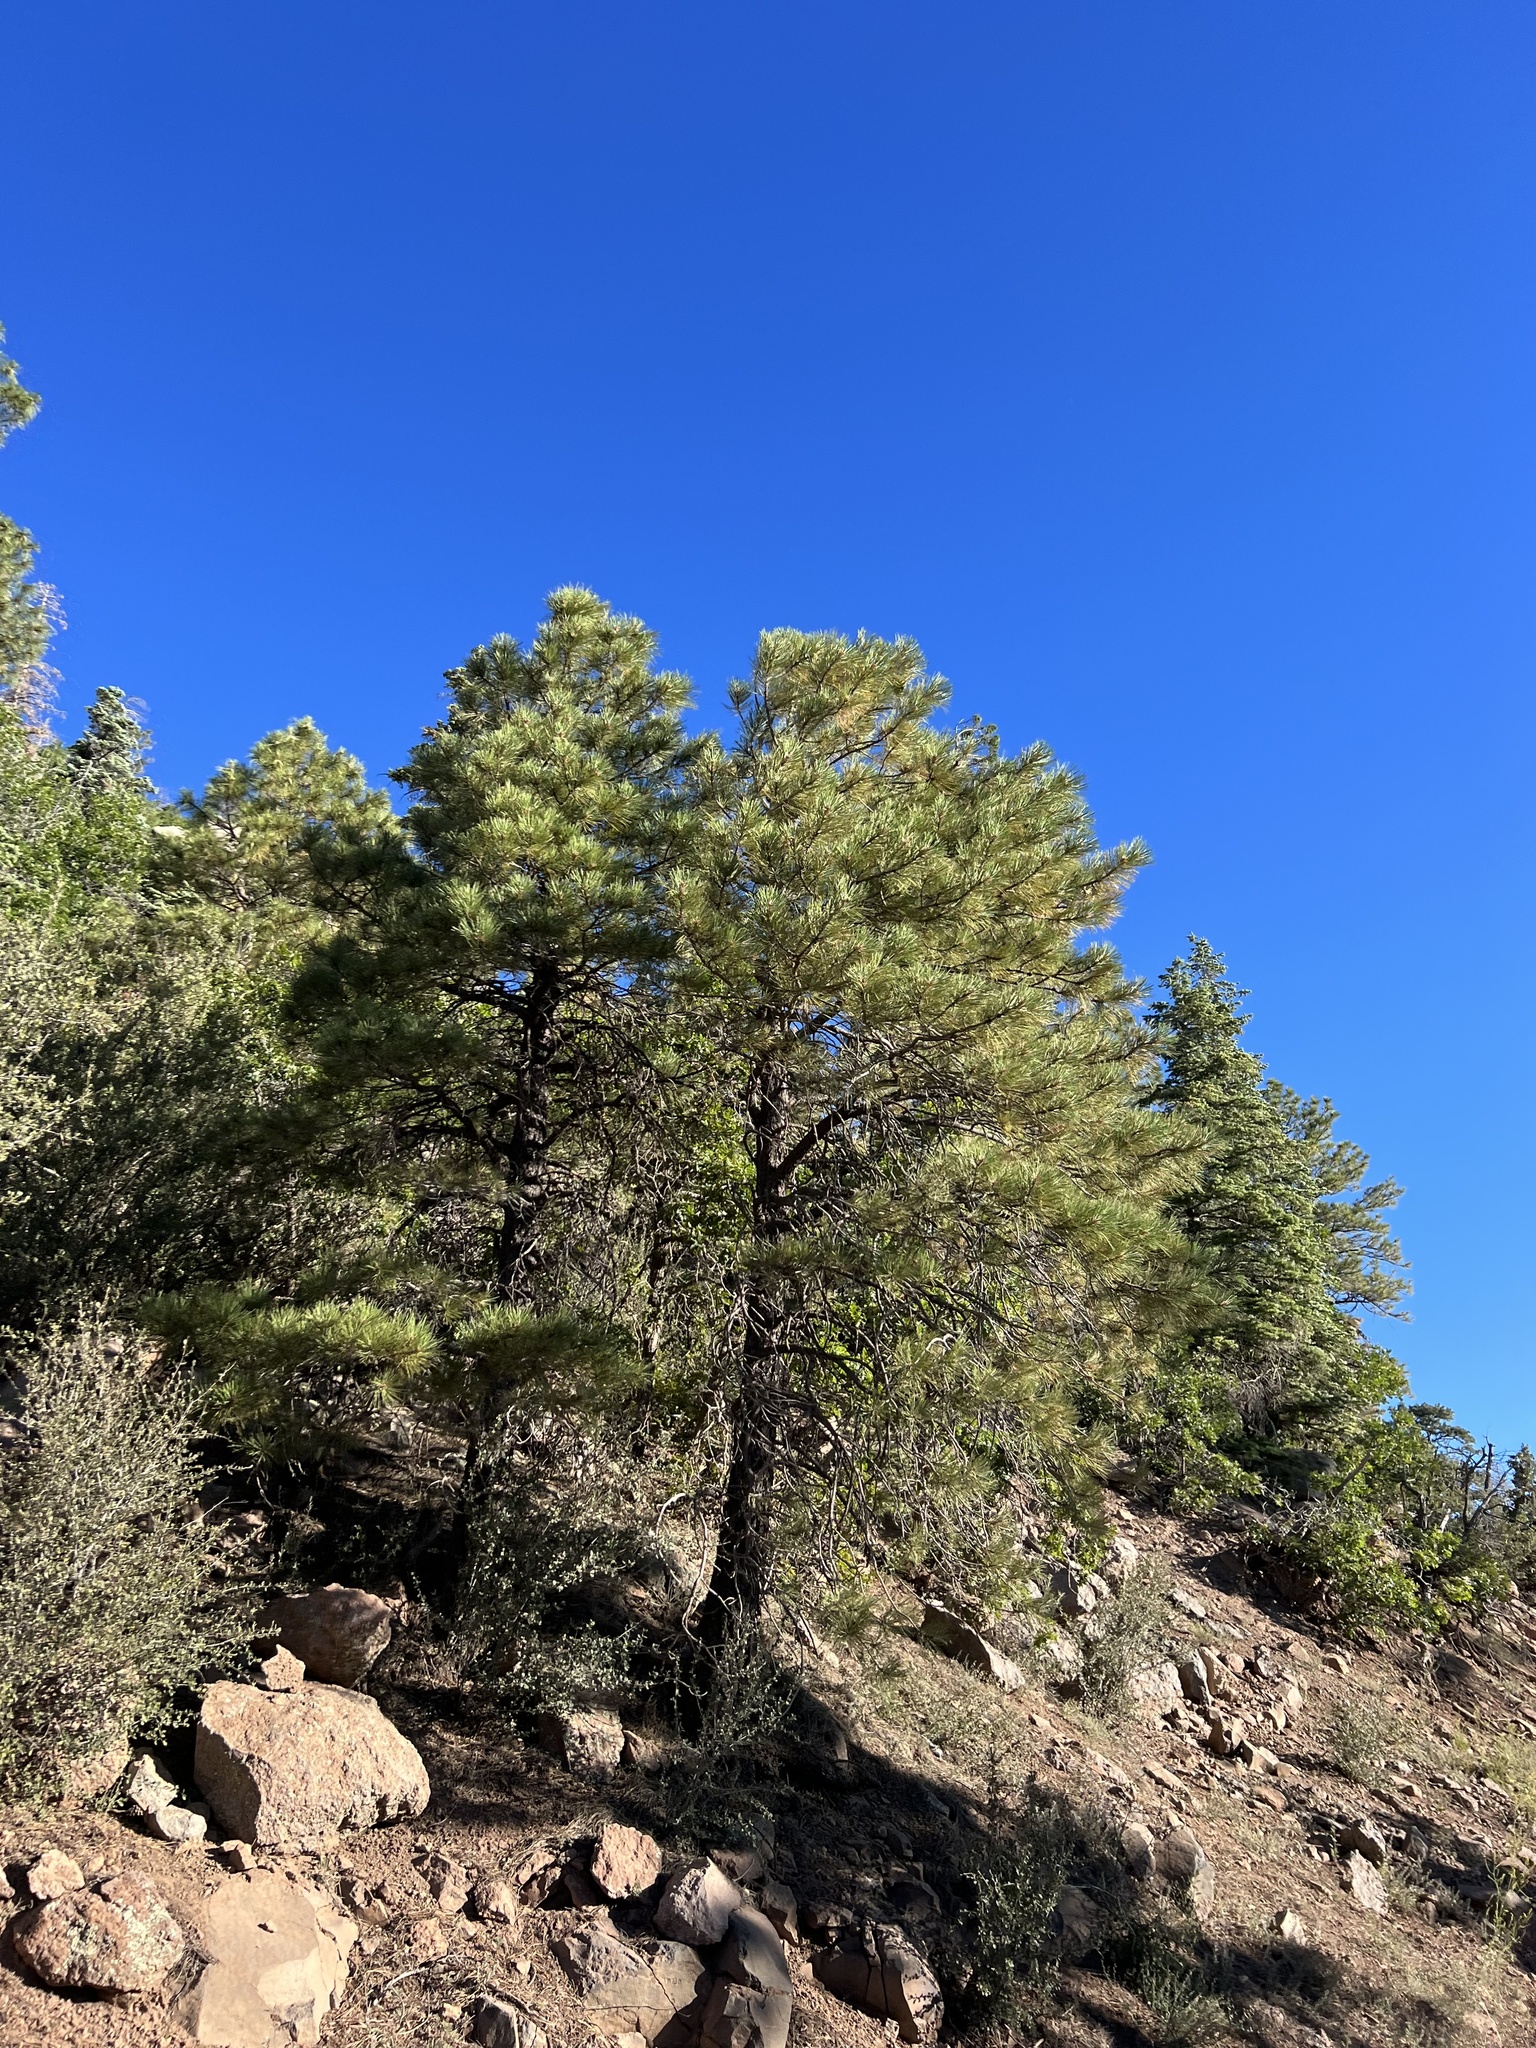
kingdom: Plantae
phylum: Tracheophyta
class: Pinopsida
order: Pinales
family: Pinaceae
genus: Pinus
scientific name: Pinus ponderosa
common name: Western yellow-pine
